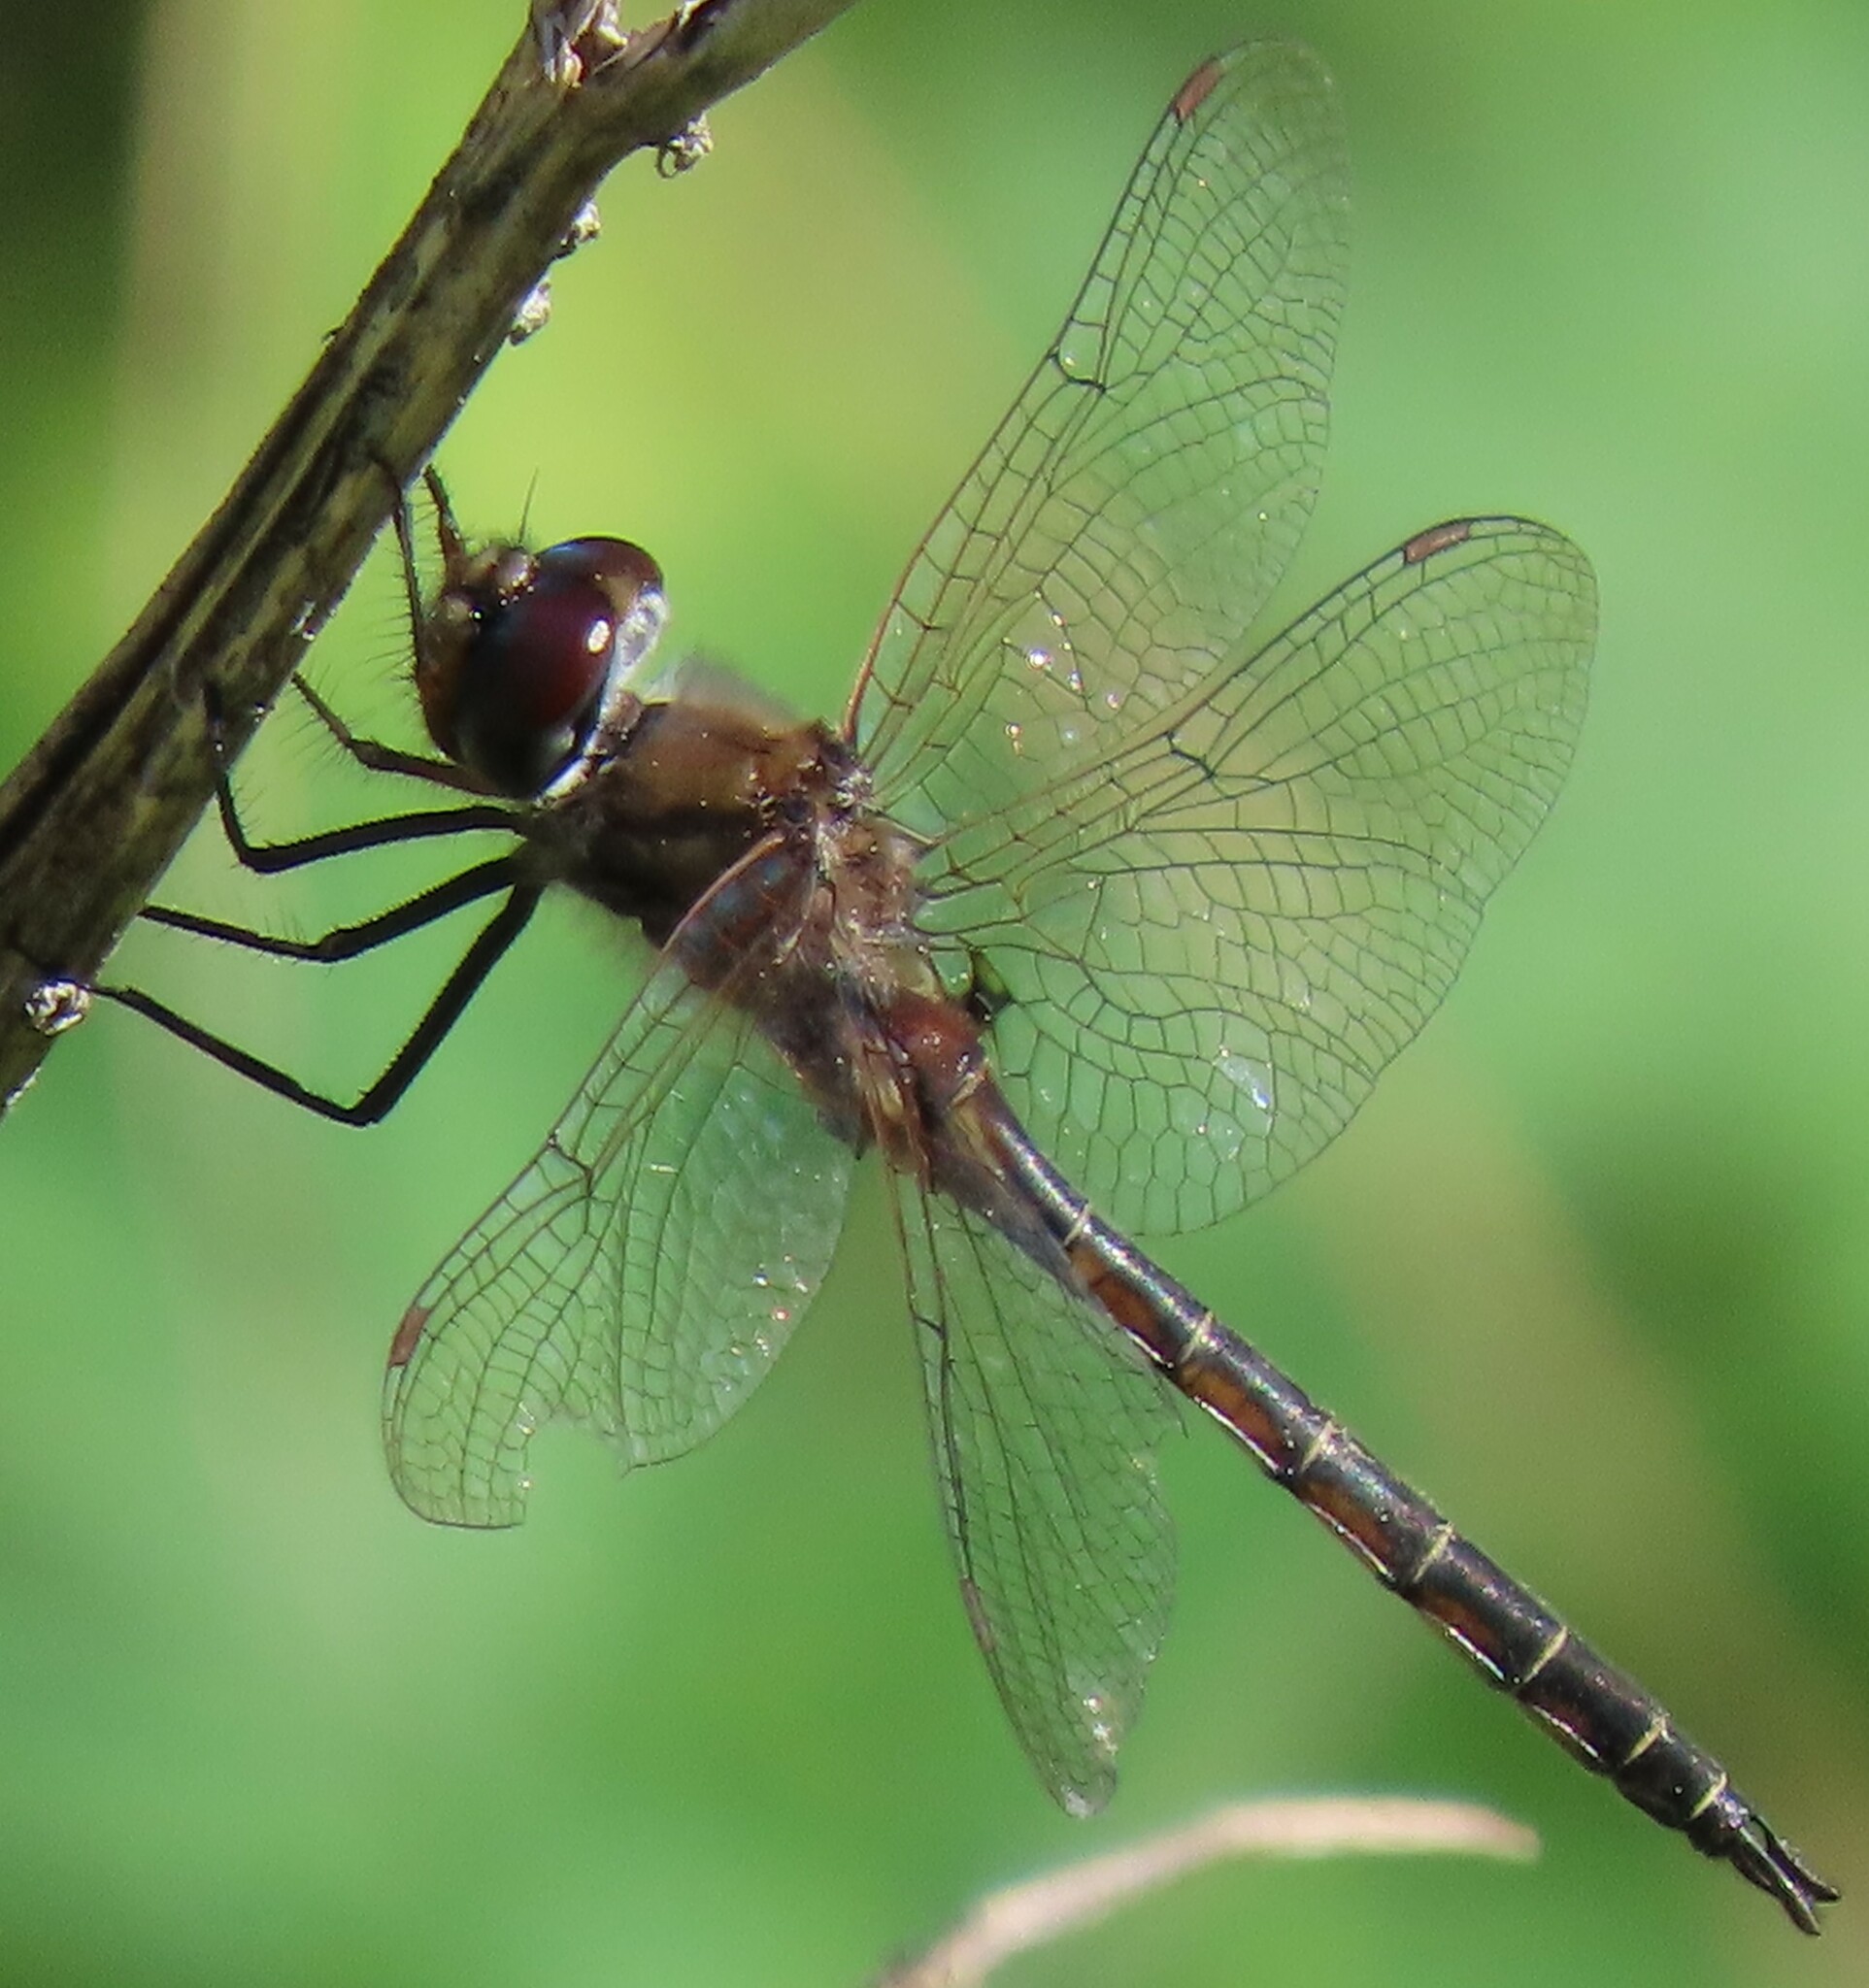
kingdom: Animalia
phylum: Arthropoda
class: Insecta
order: Odonata
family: Corduliidae
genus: Epitheca
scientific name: Epitheca costalis
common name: Slender baskettail
